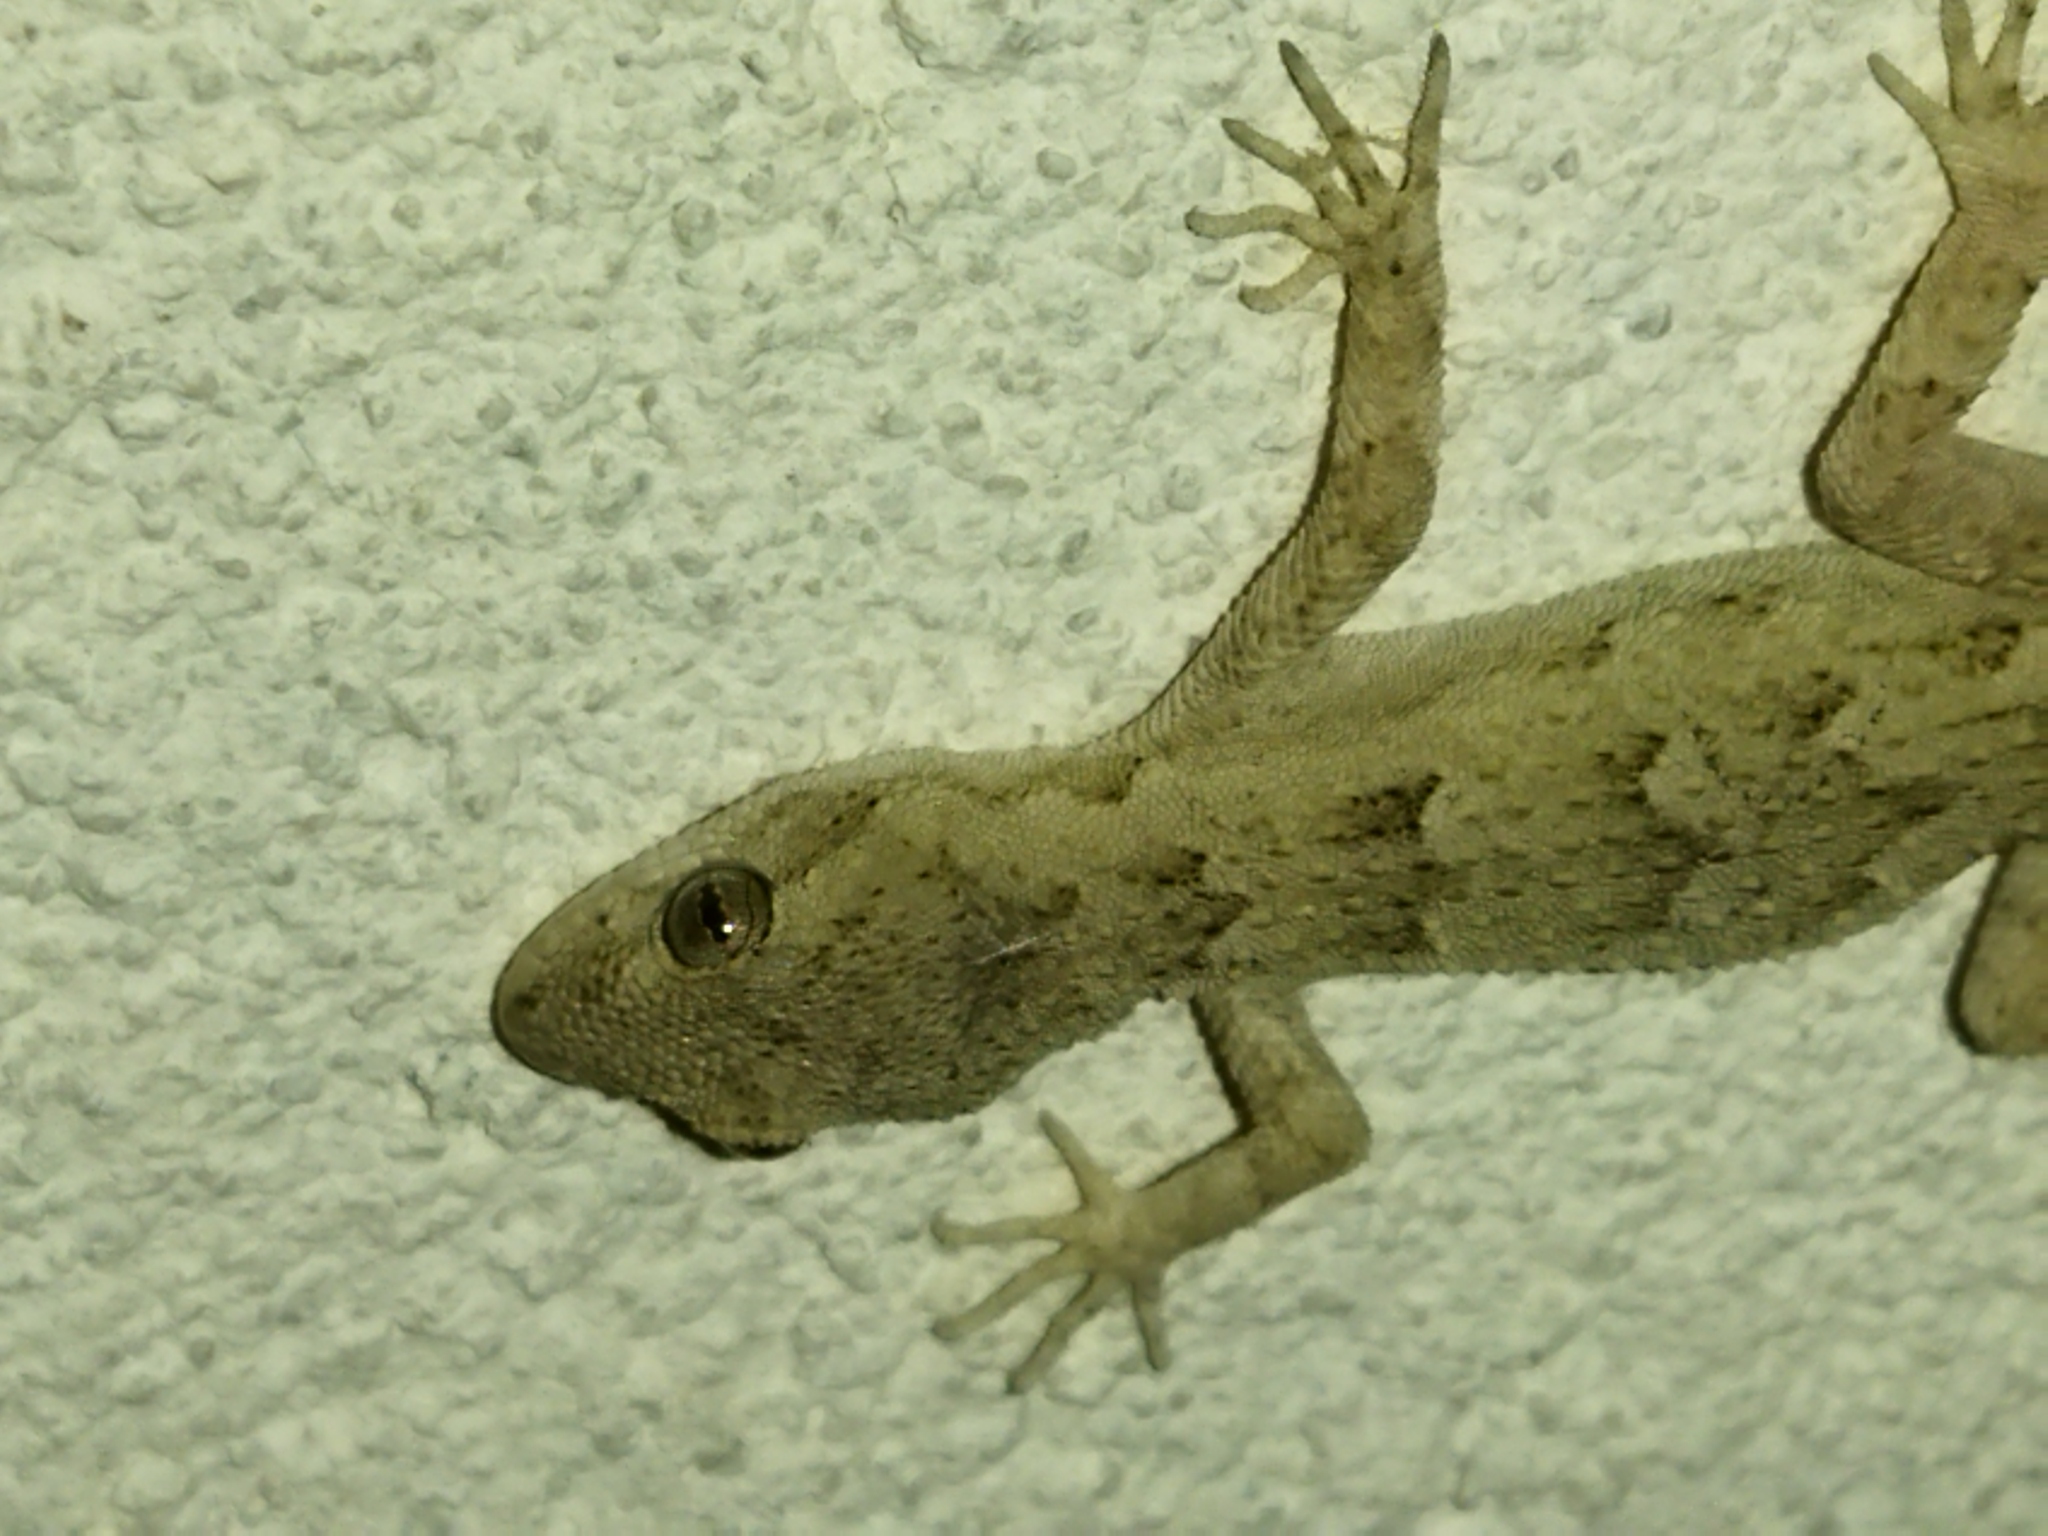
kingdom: Animalia
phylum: Chordata
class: Squamata
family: Gekkonidae
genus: Mediodactylus
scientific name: Mediodactylus kotschyi
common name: Kotschy's gecko
